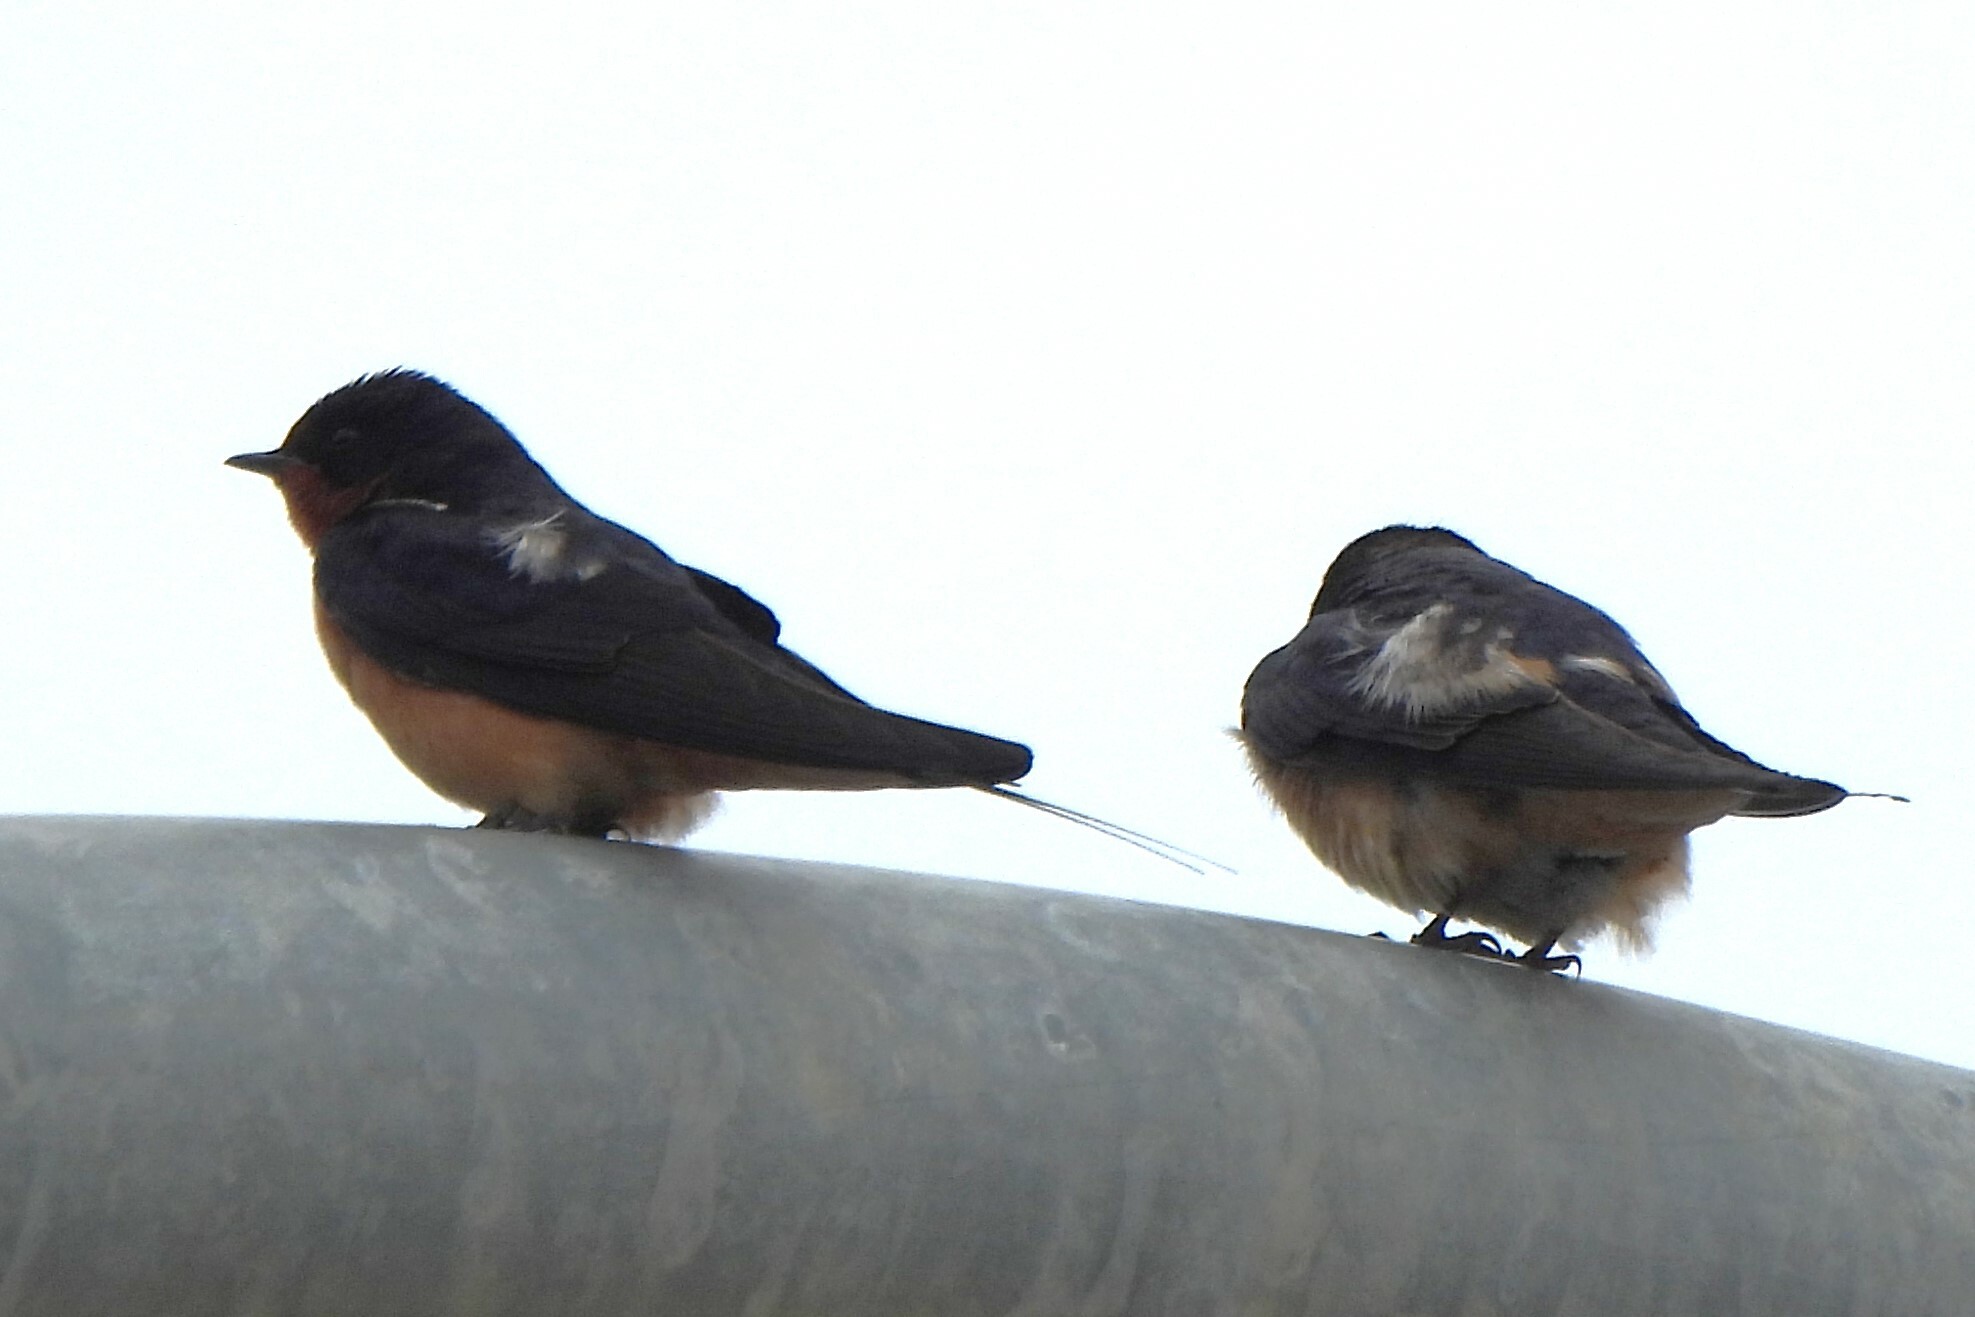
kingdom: Animalia
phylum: Chordata
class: Aves
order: Passeriformes
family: Hirundinidae
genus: Hirundo
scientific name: Hirundo rustica
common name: Barn swallow
